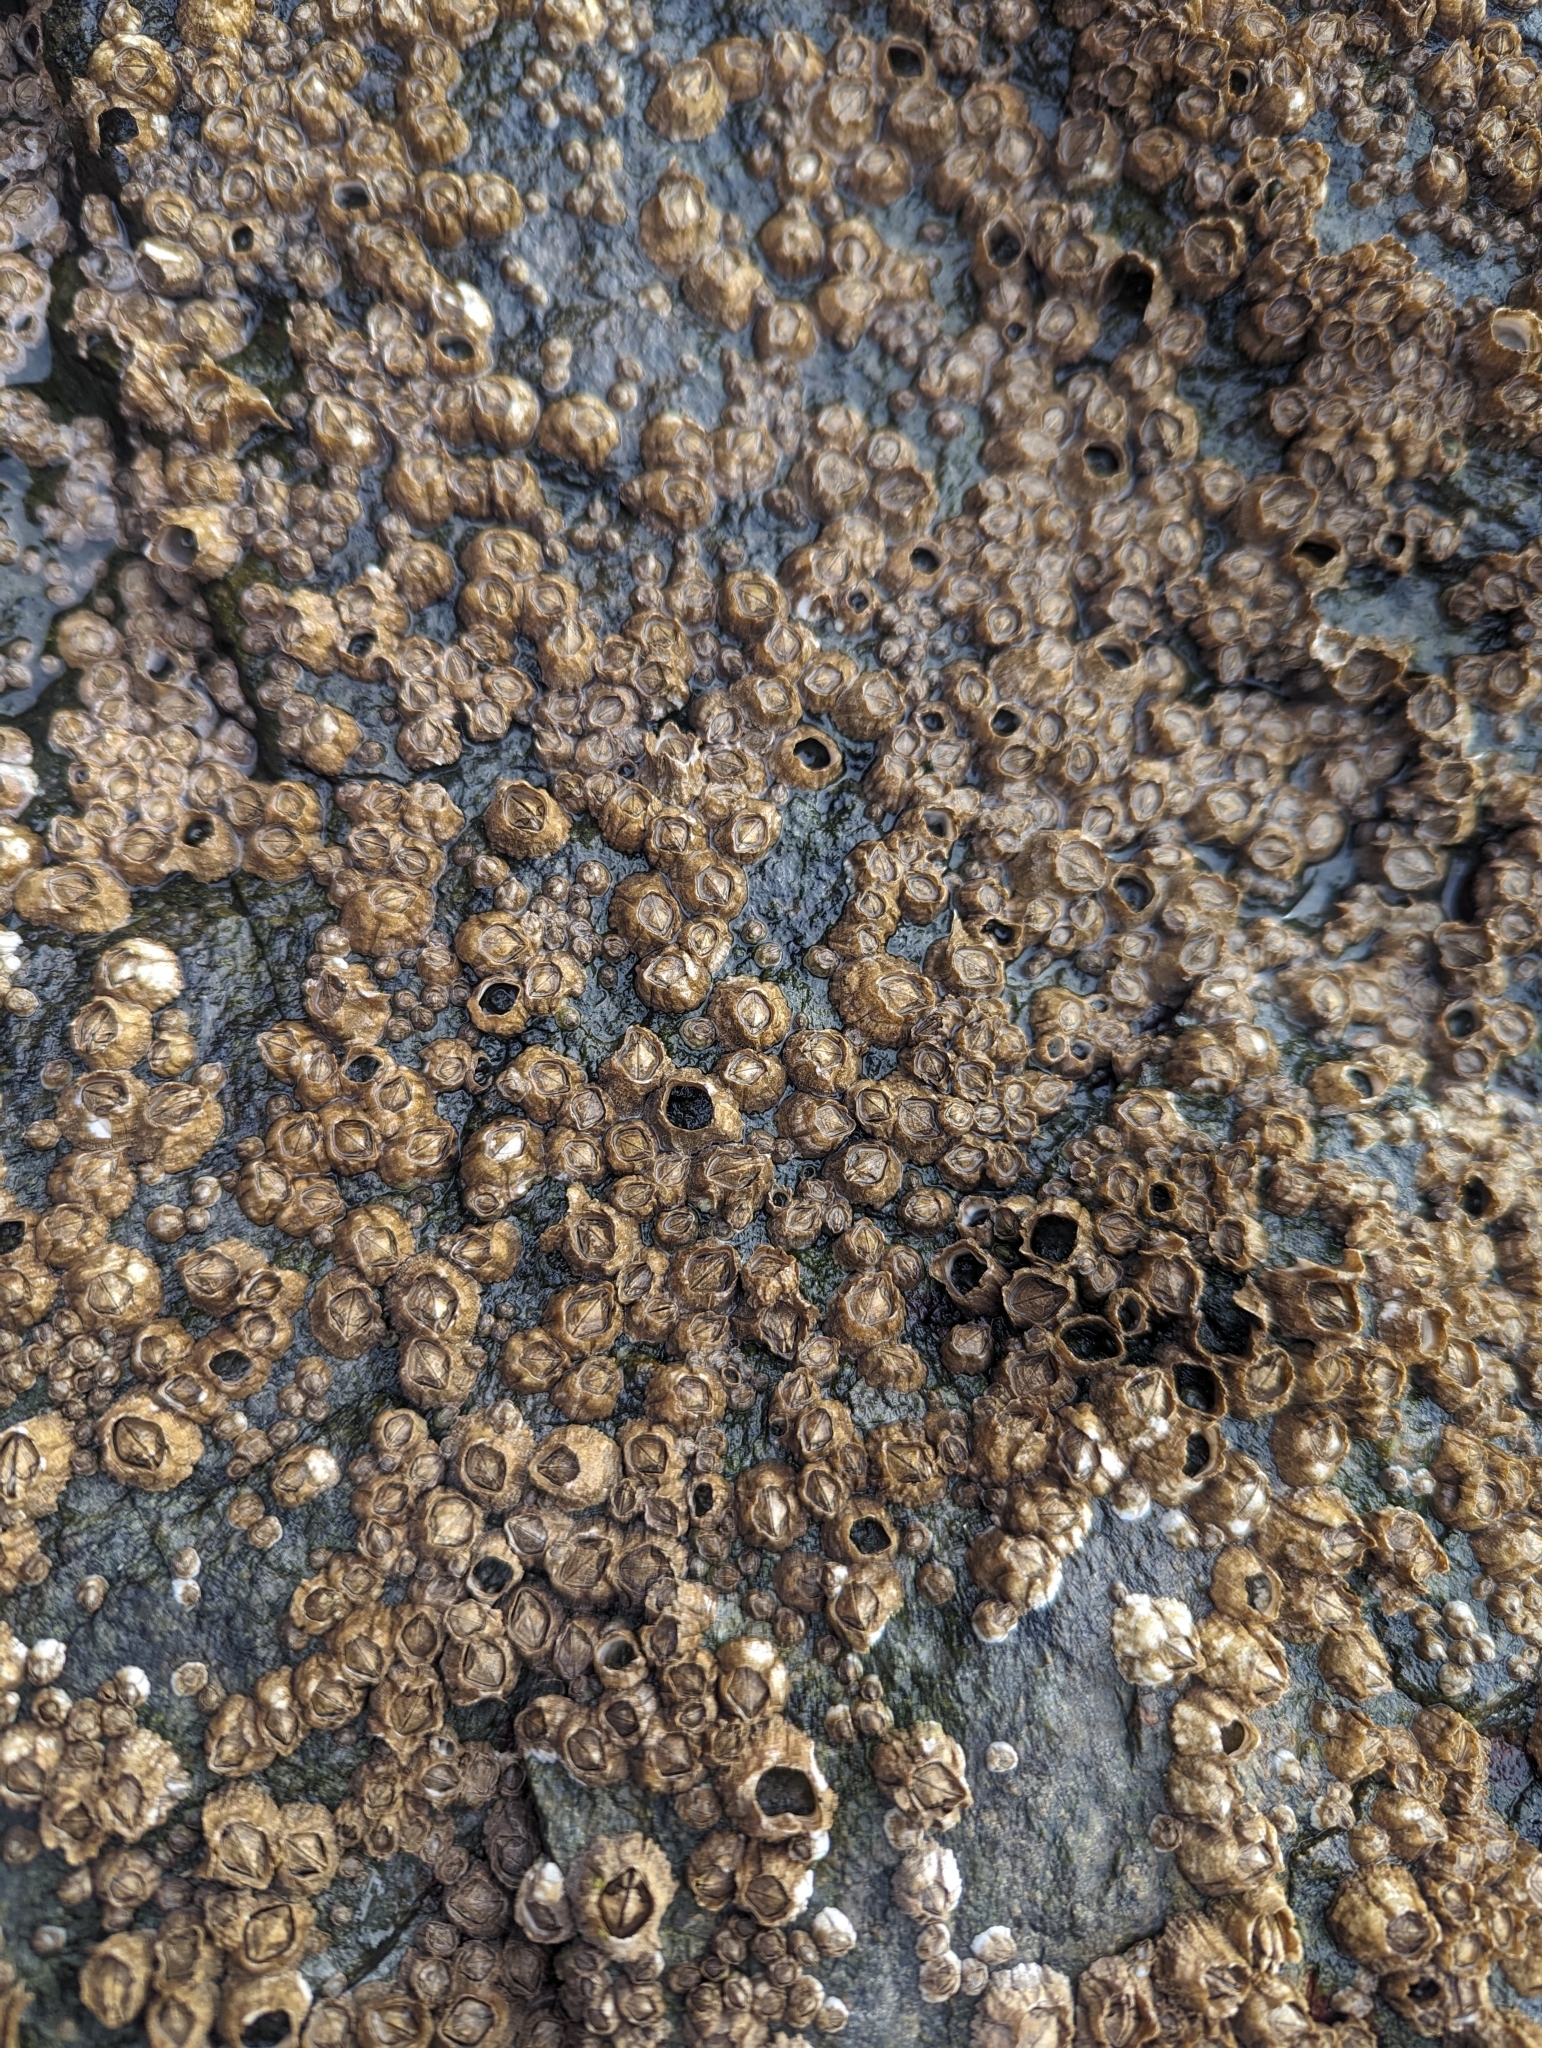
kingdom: Animalia
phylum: Arthropoda
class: Maxillopoda
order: Sessilia
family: Archaeobalanidae
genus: Semibalanus
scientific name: Semibalanus balanoides
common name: Acorn barnacle
